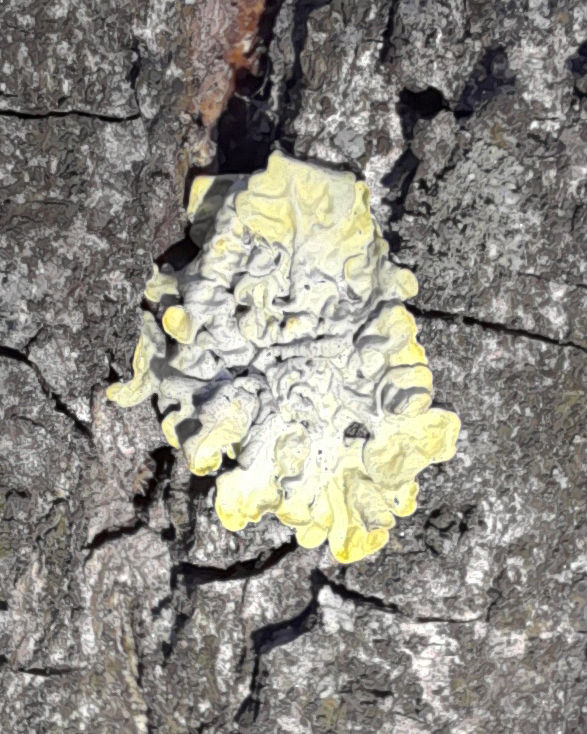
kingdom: Fungi
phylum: Ascomycota
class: Lecanoromycetes
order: Teloschistales
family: Teloschistaceae
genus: Xanthoria
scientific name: Xanthoria parietina
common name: Common orange lichen
